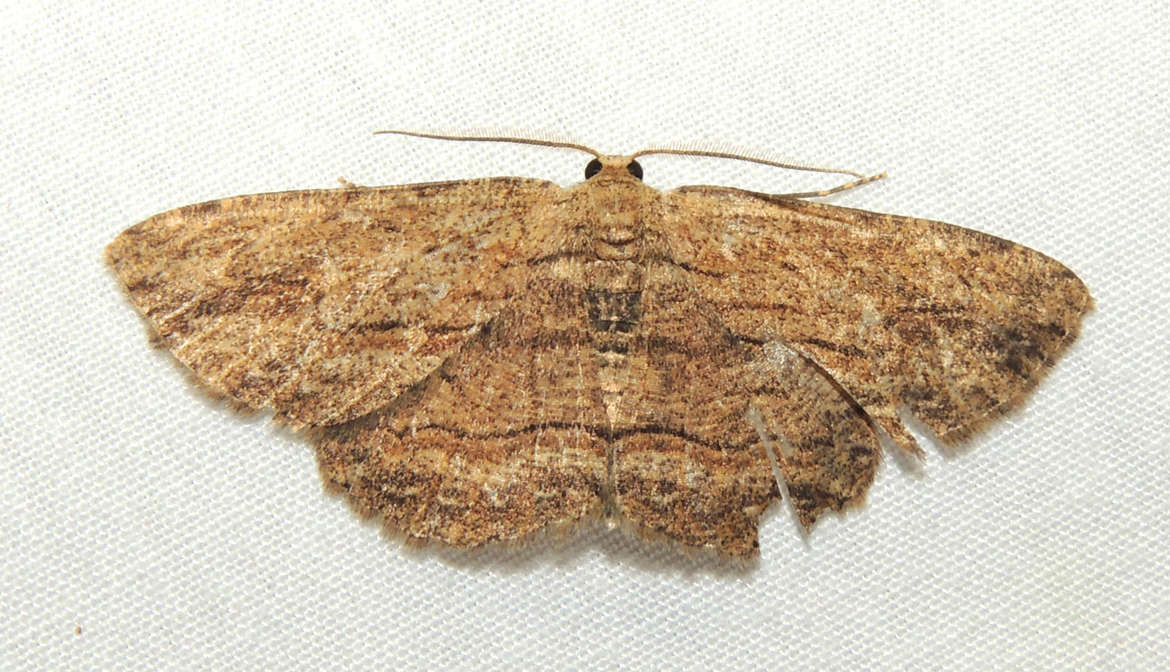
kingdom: Animalia
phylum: Arthropoda
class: Insecta
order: Lepidoptera
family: Geometridae
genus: Ectropis
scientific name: Ectropis excursaria
